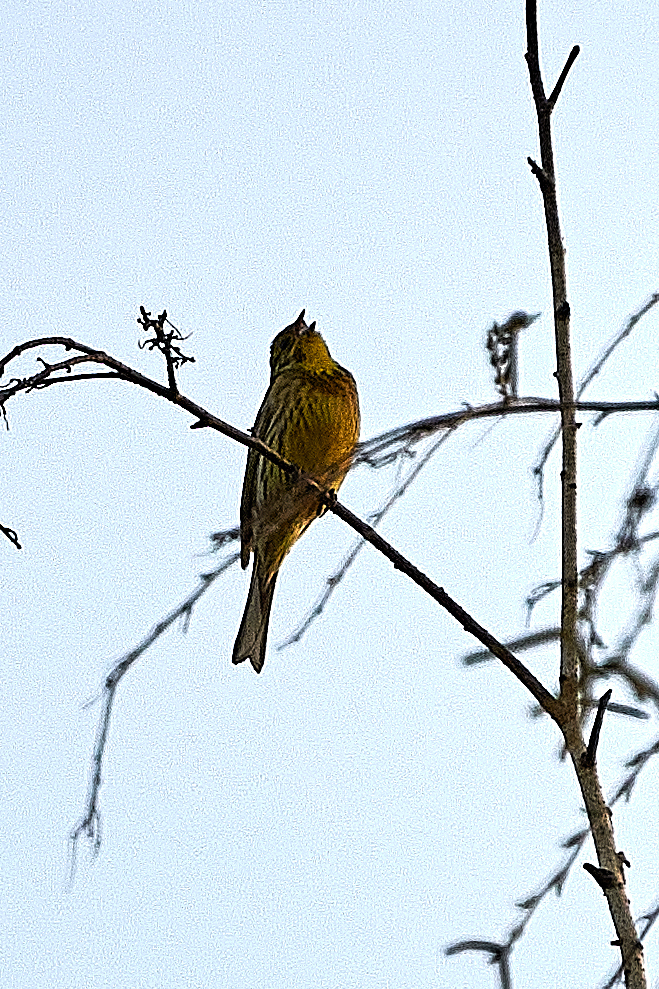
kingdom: Animalia
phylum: Chordata
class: Aves
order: Passeriformes
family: Emberizidae
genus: Emberiza
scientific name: Emberiza citrinella
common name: Yellowhammer
